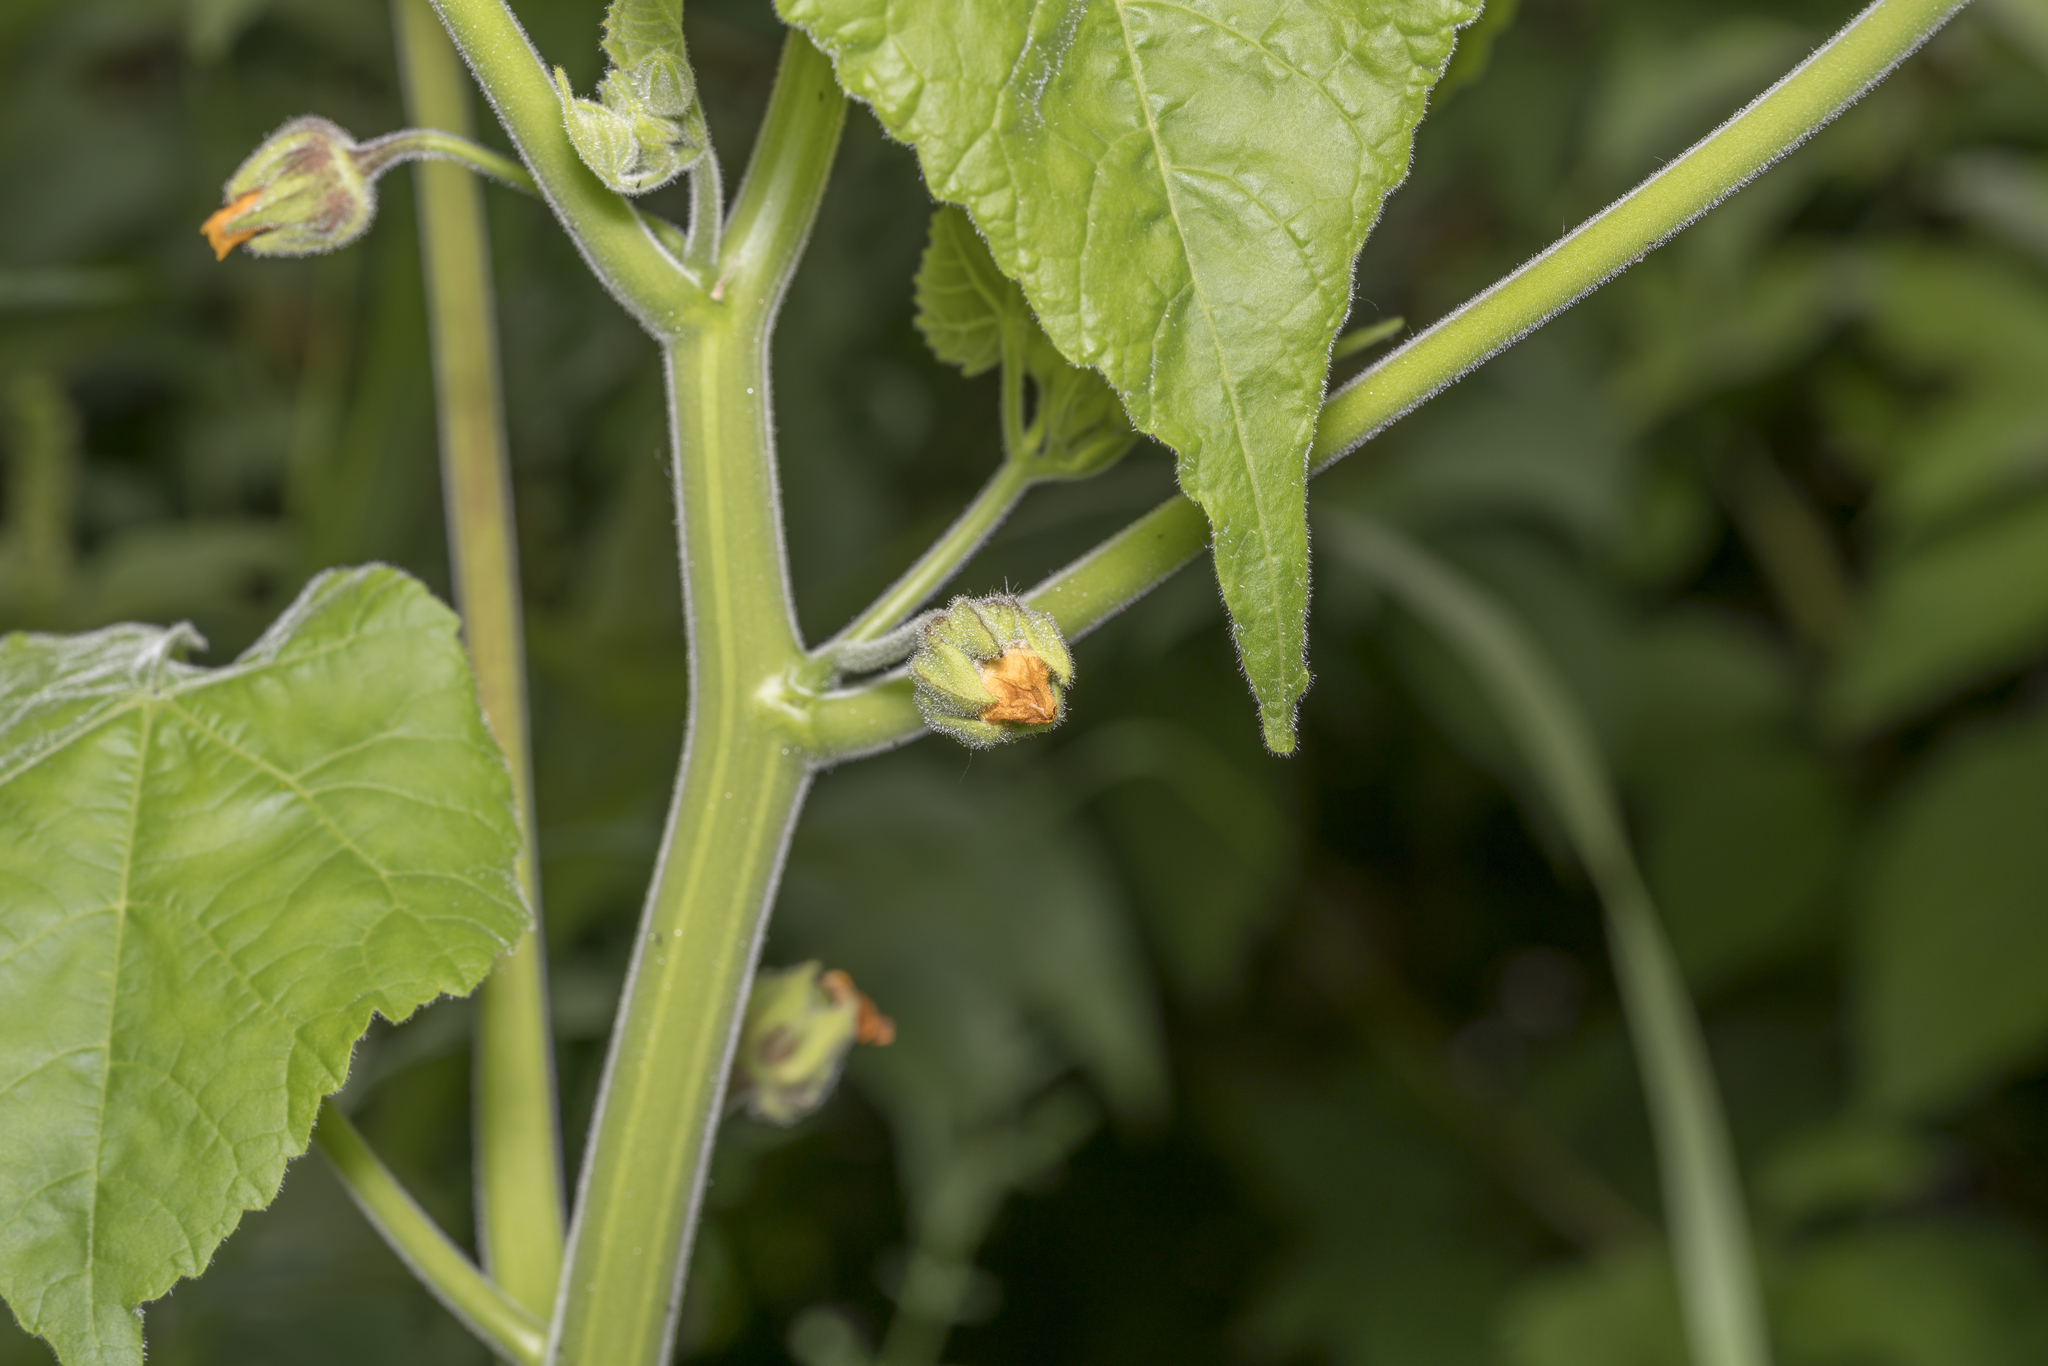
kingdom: Plantae
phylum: Tracheophyta
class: Magnoliopsida
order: Malvales
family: Malvaceae
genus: Abutilon
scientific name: Abutilon theophrasti
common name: Velvetleaf
